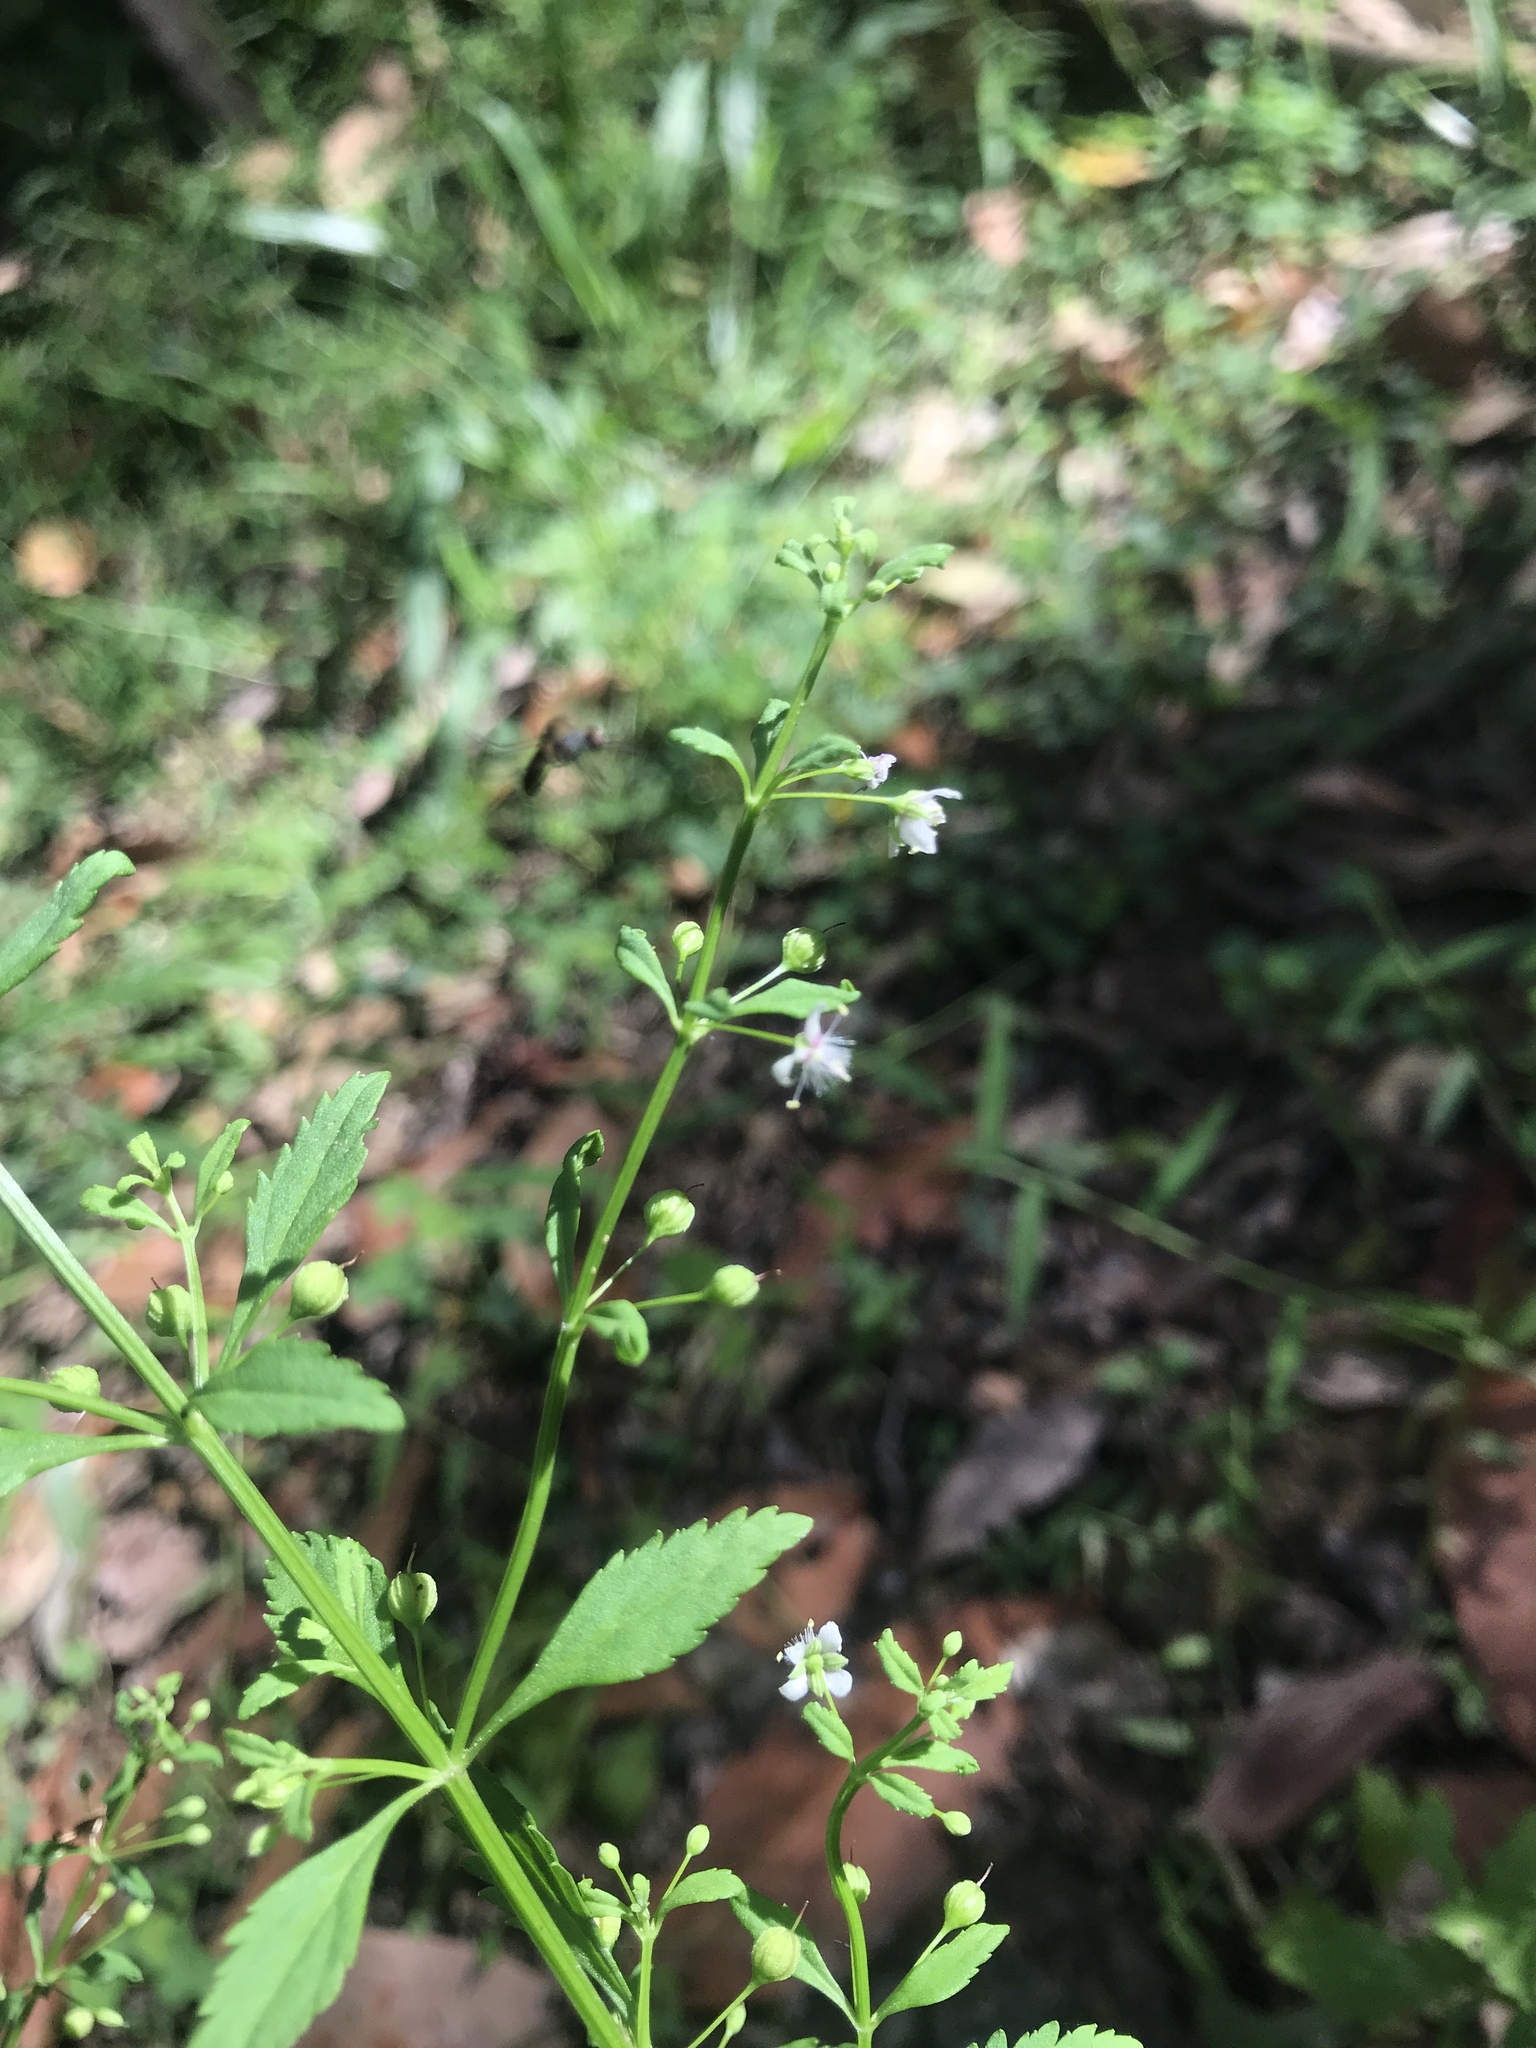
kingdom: Plantae
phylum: Tracheophyta
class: Magnoliopsida
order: Lamiales
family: Plantaginaceae
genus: Scoparia
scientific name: Scoparia dulcis
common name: Scoparia-weed
